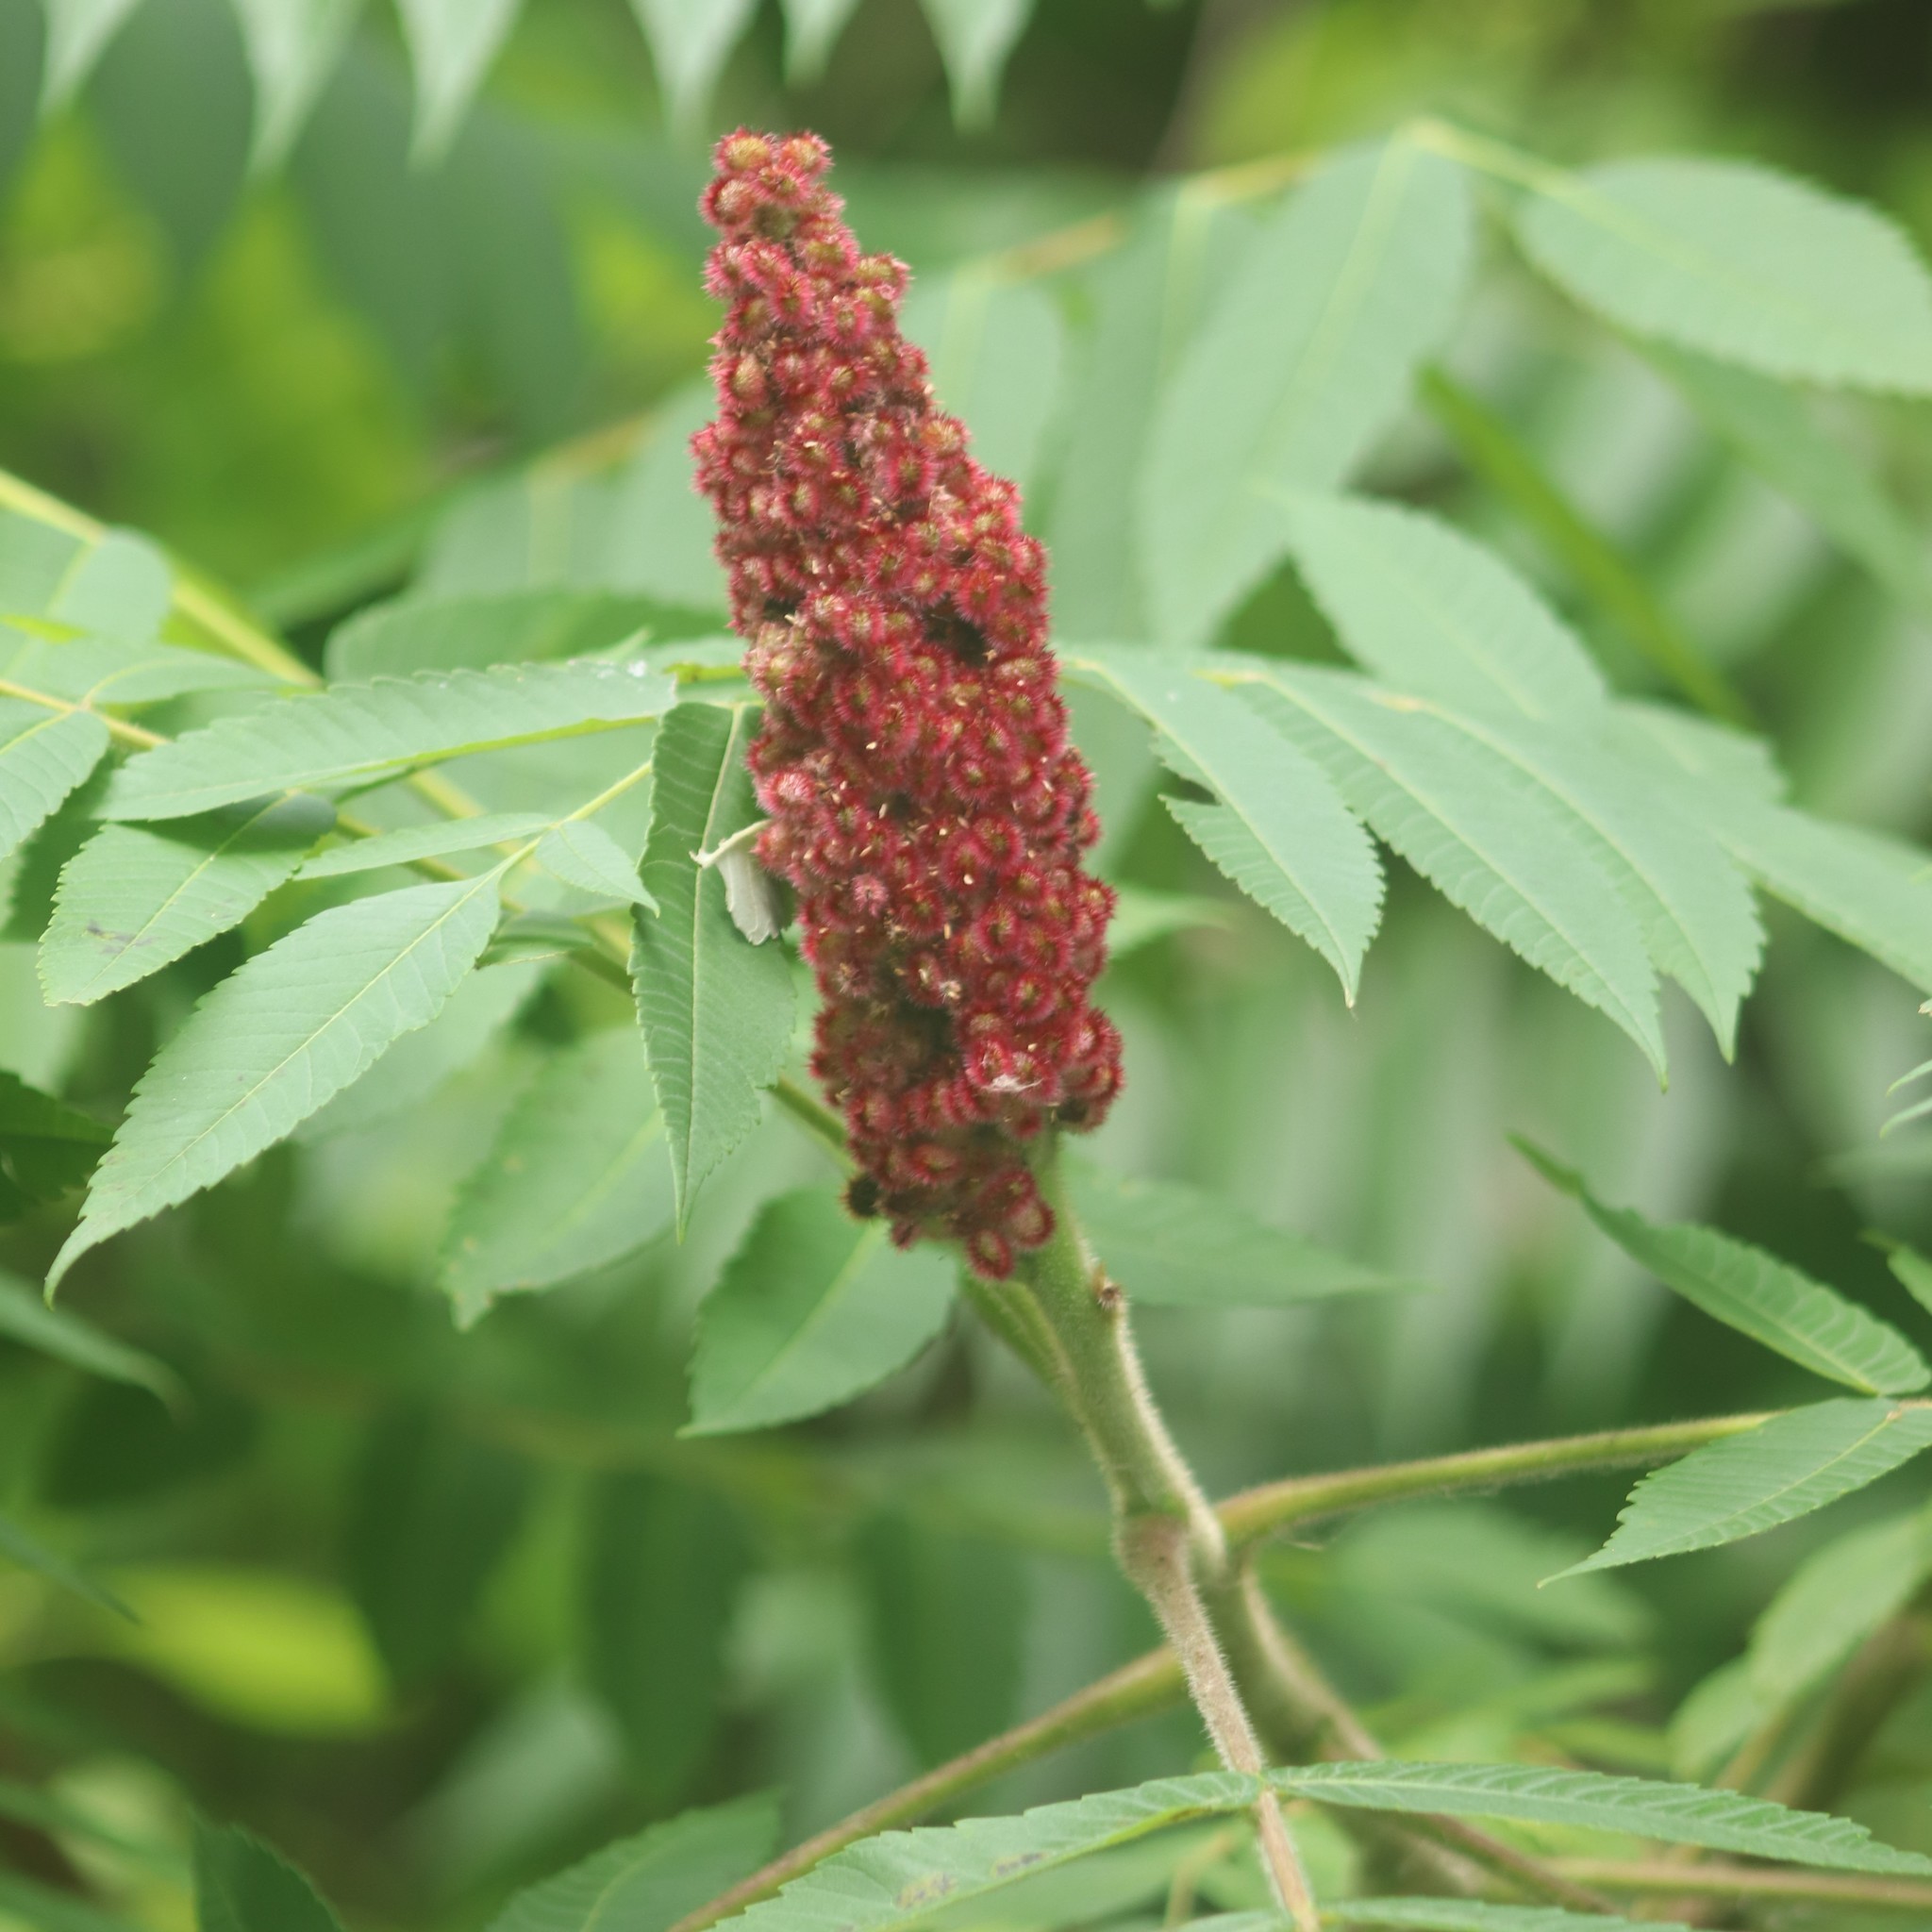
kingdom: Plantae
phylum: Tracheophyta
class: Magnoliopsida
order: Sapindales
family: Anacardiaceae
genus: Rhus
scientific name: Rhus typhina
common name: Staghorn sumac
